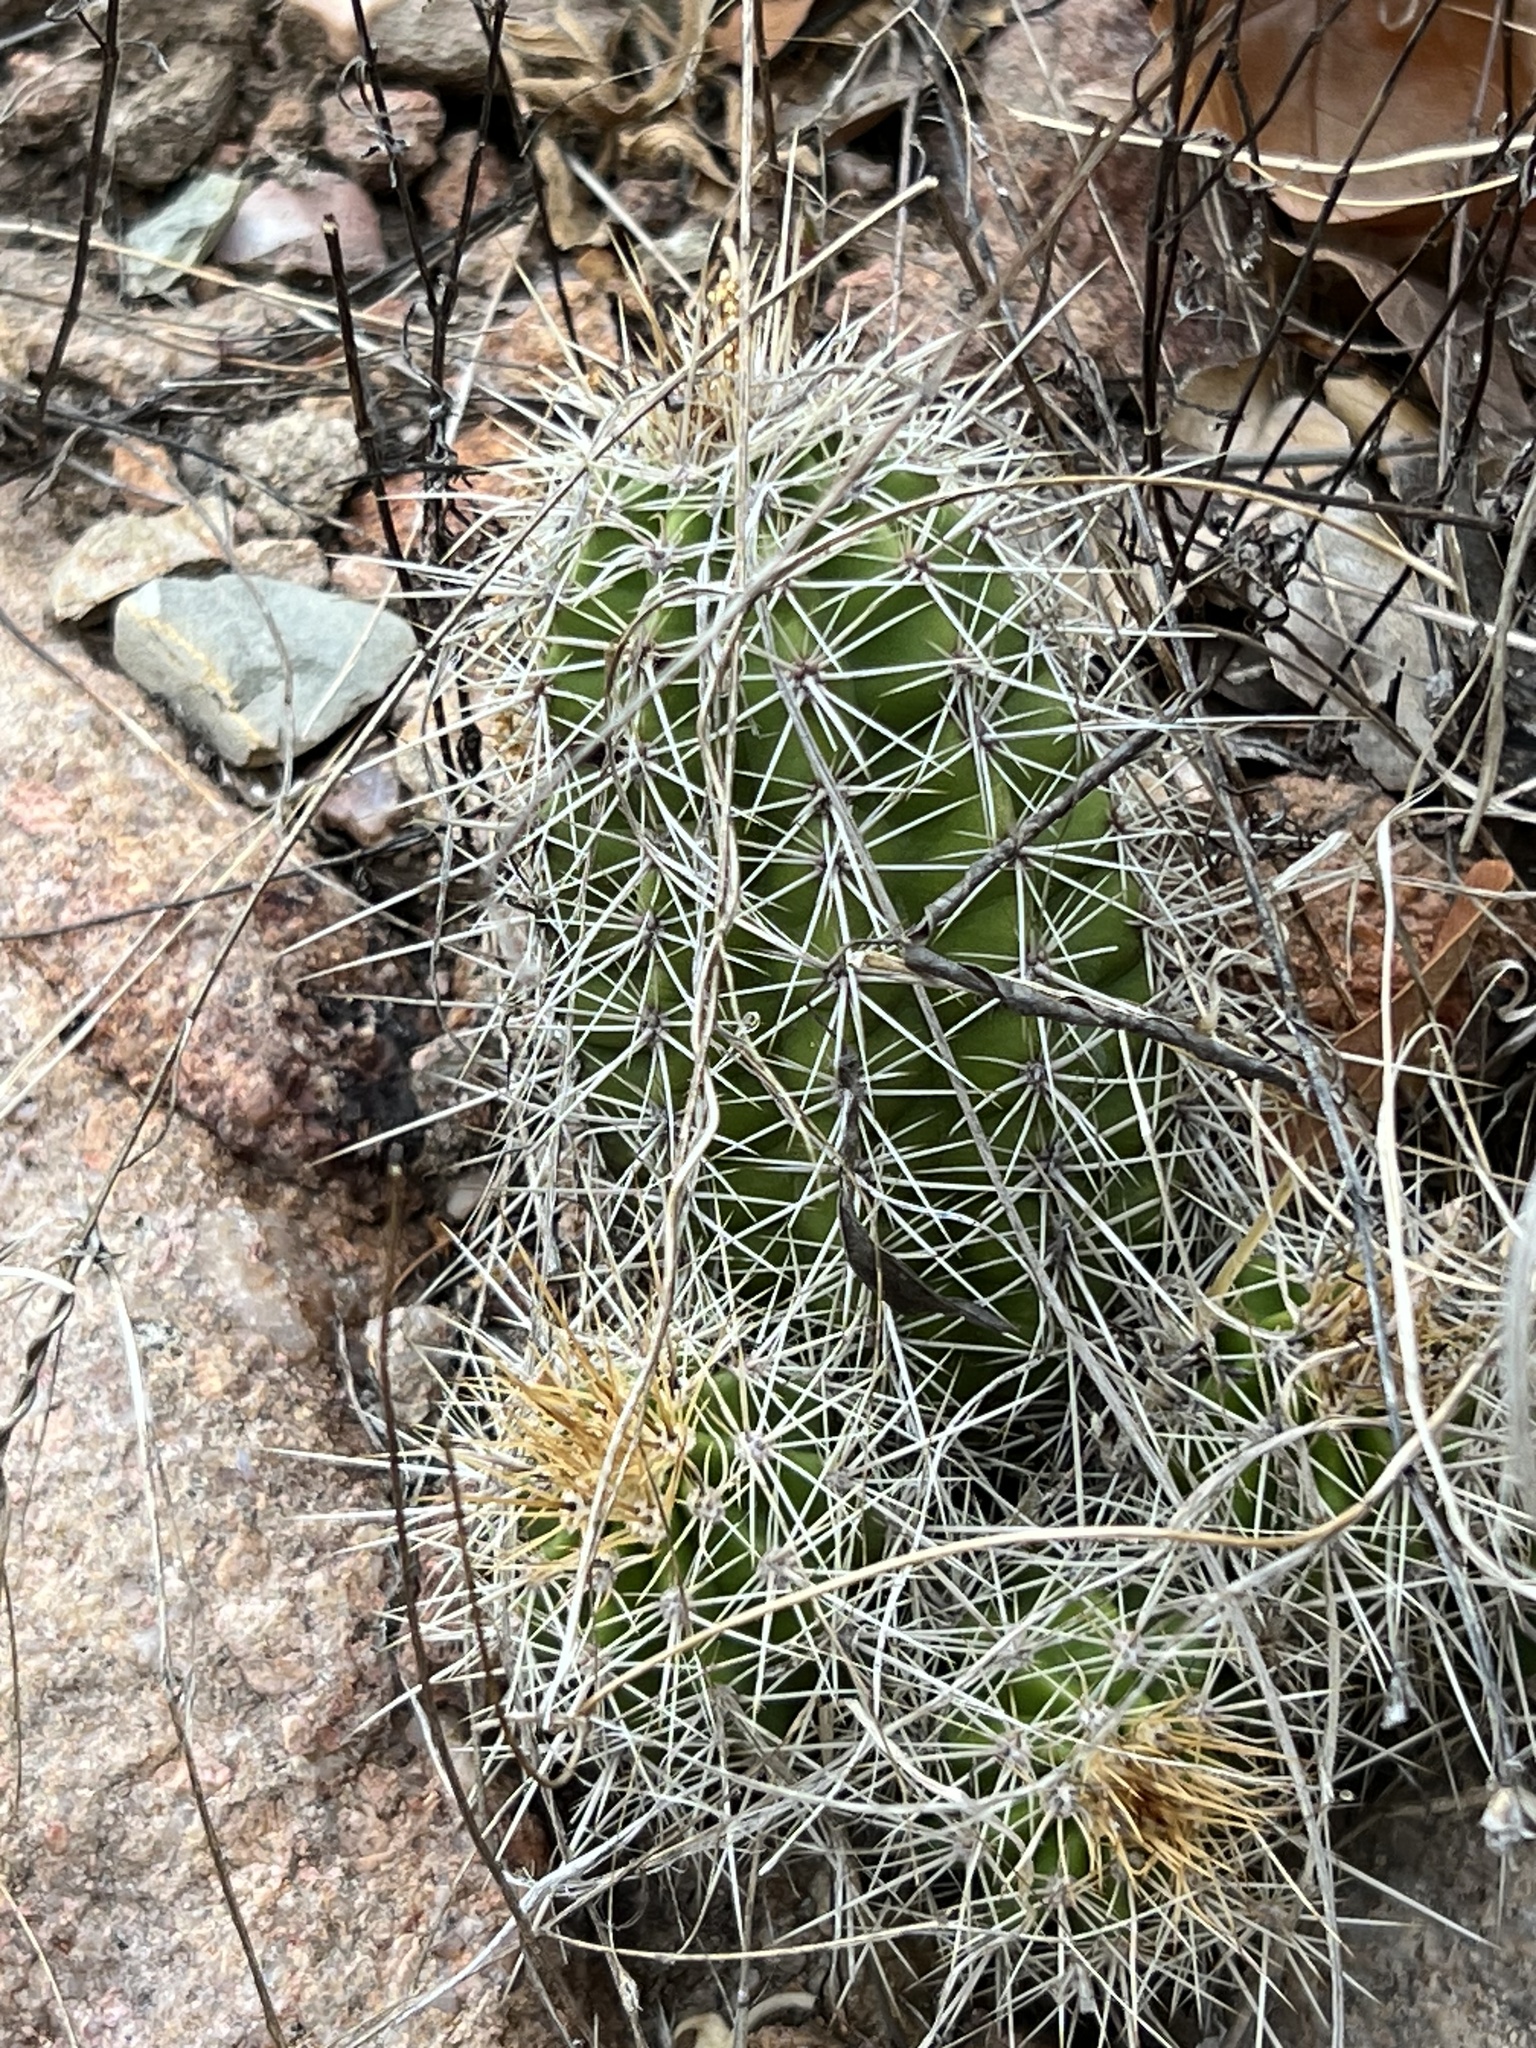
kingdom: Plantae
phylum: Tracheophyta
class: Magnoliopsida
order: Caryophyllales
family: Cactaceae
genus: Echinocereus
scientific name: Echinocereus coccineus
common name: Scarlet hedgehog cactus
